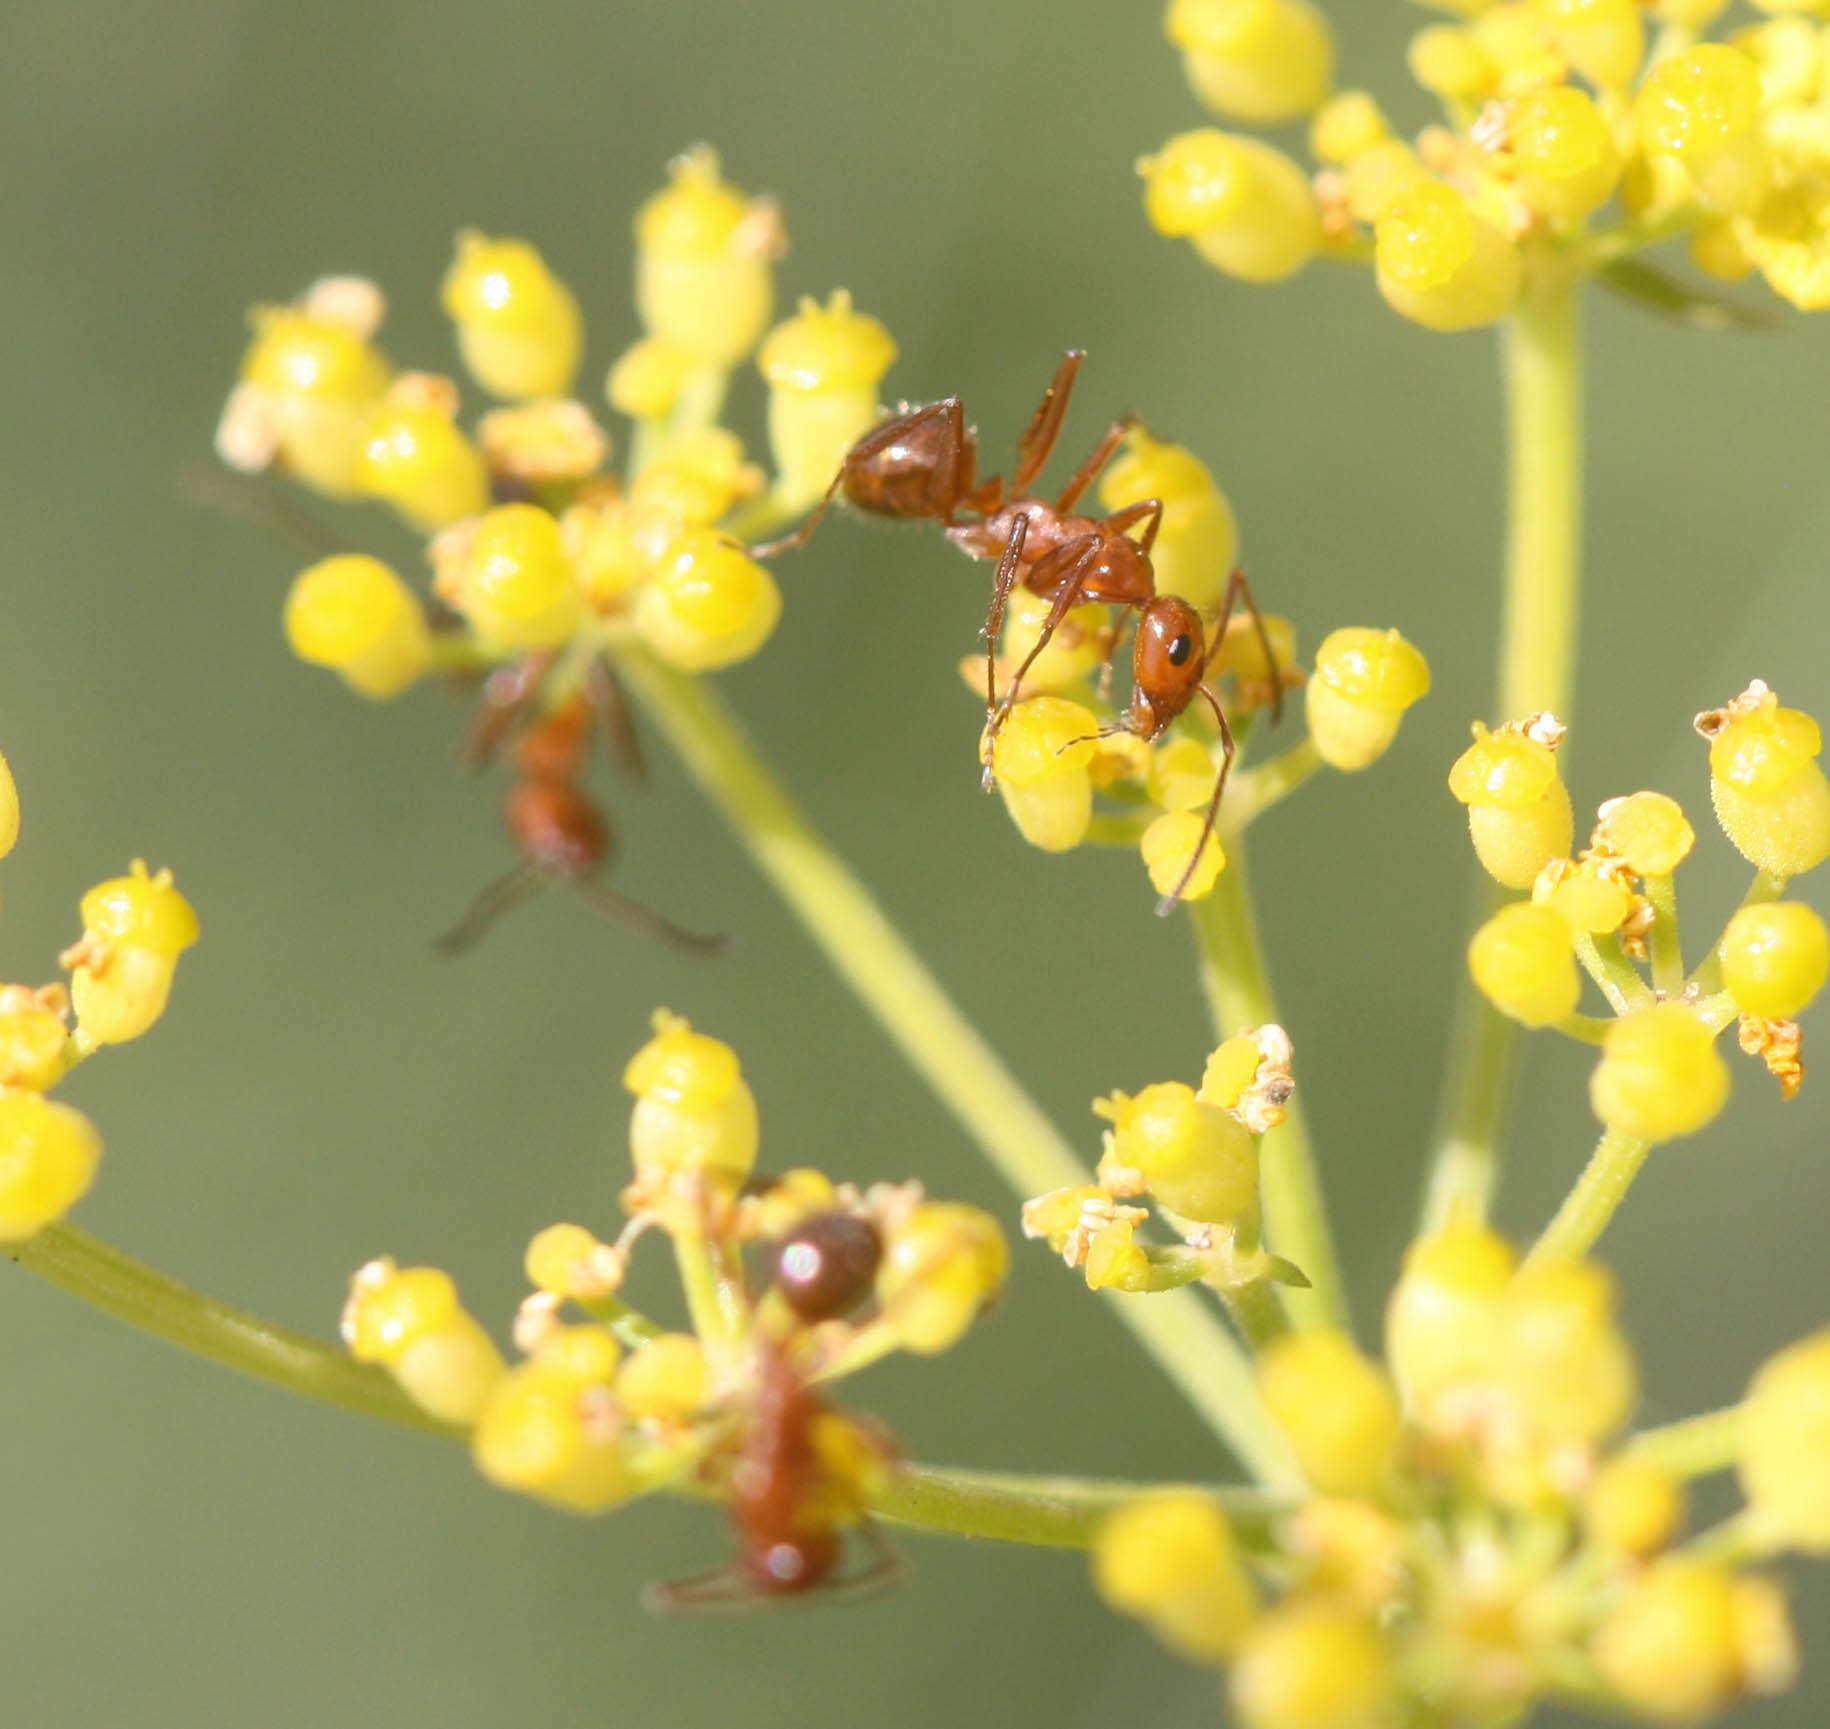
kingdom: Animalia
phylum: Arthropoda
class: Insecta
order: Hymenoptera
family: Formicidae
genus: Formica
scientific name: Formica pallidefulva
